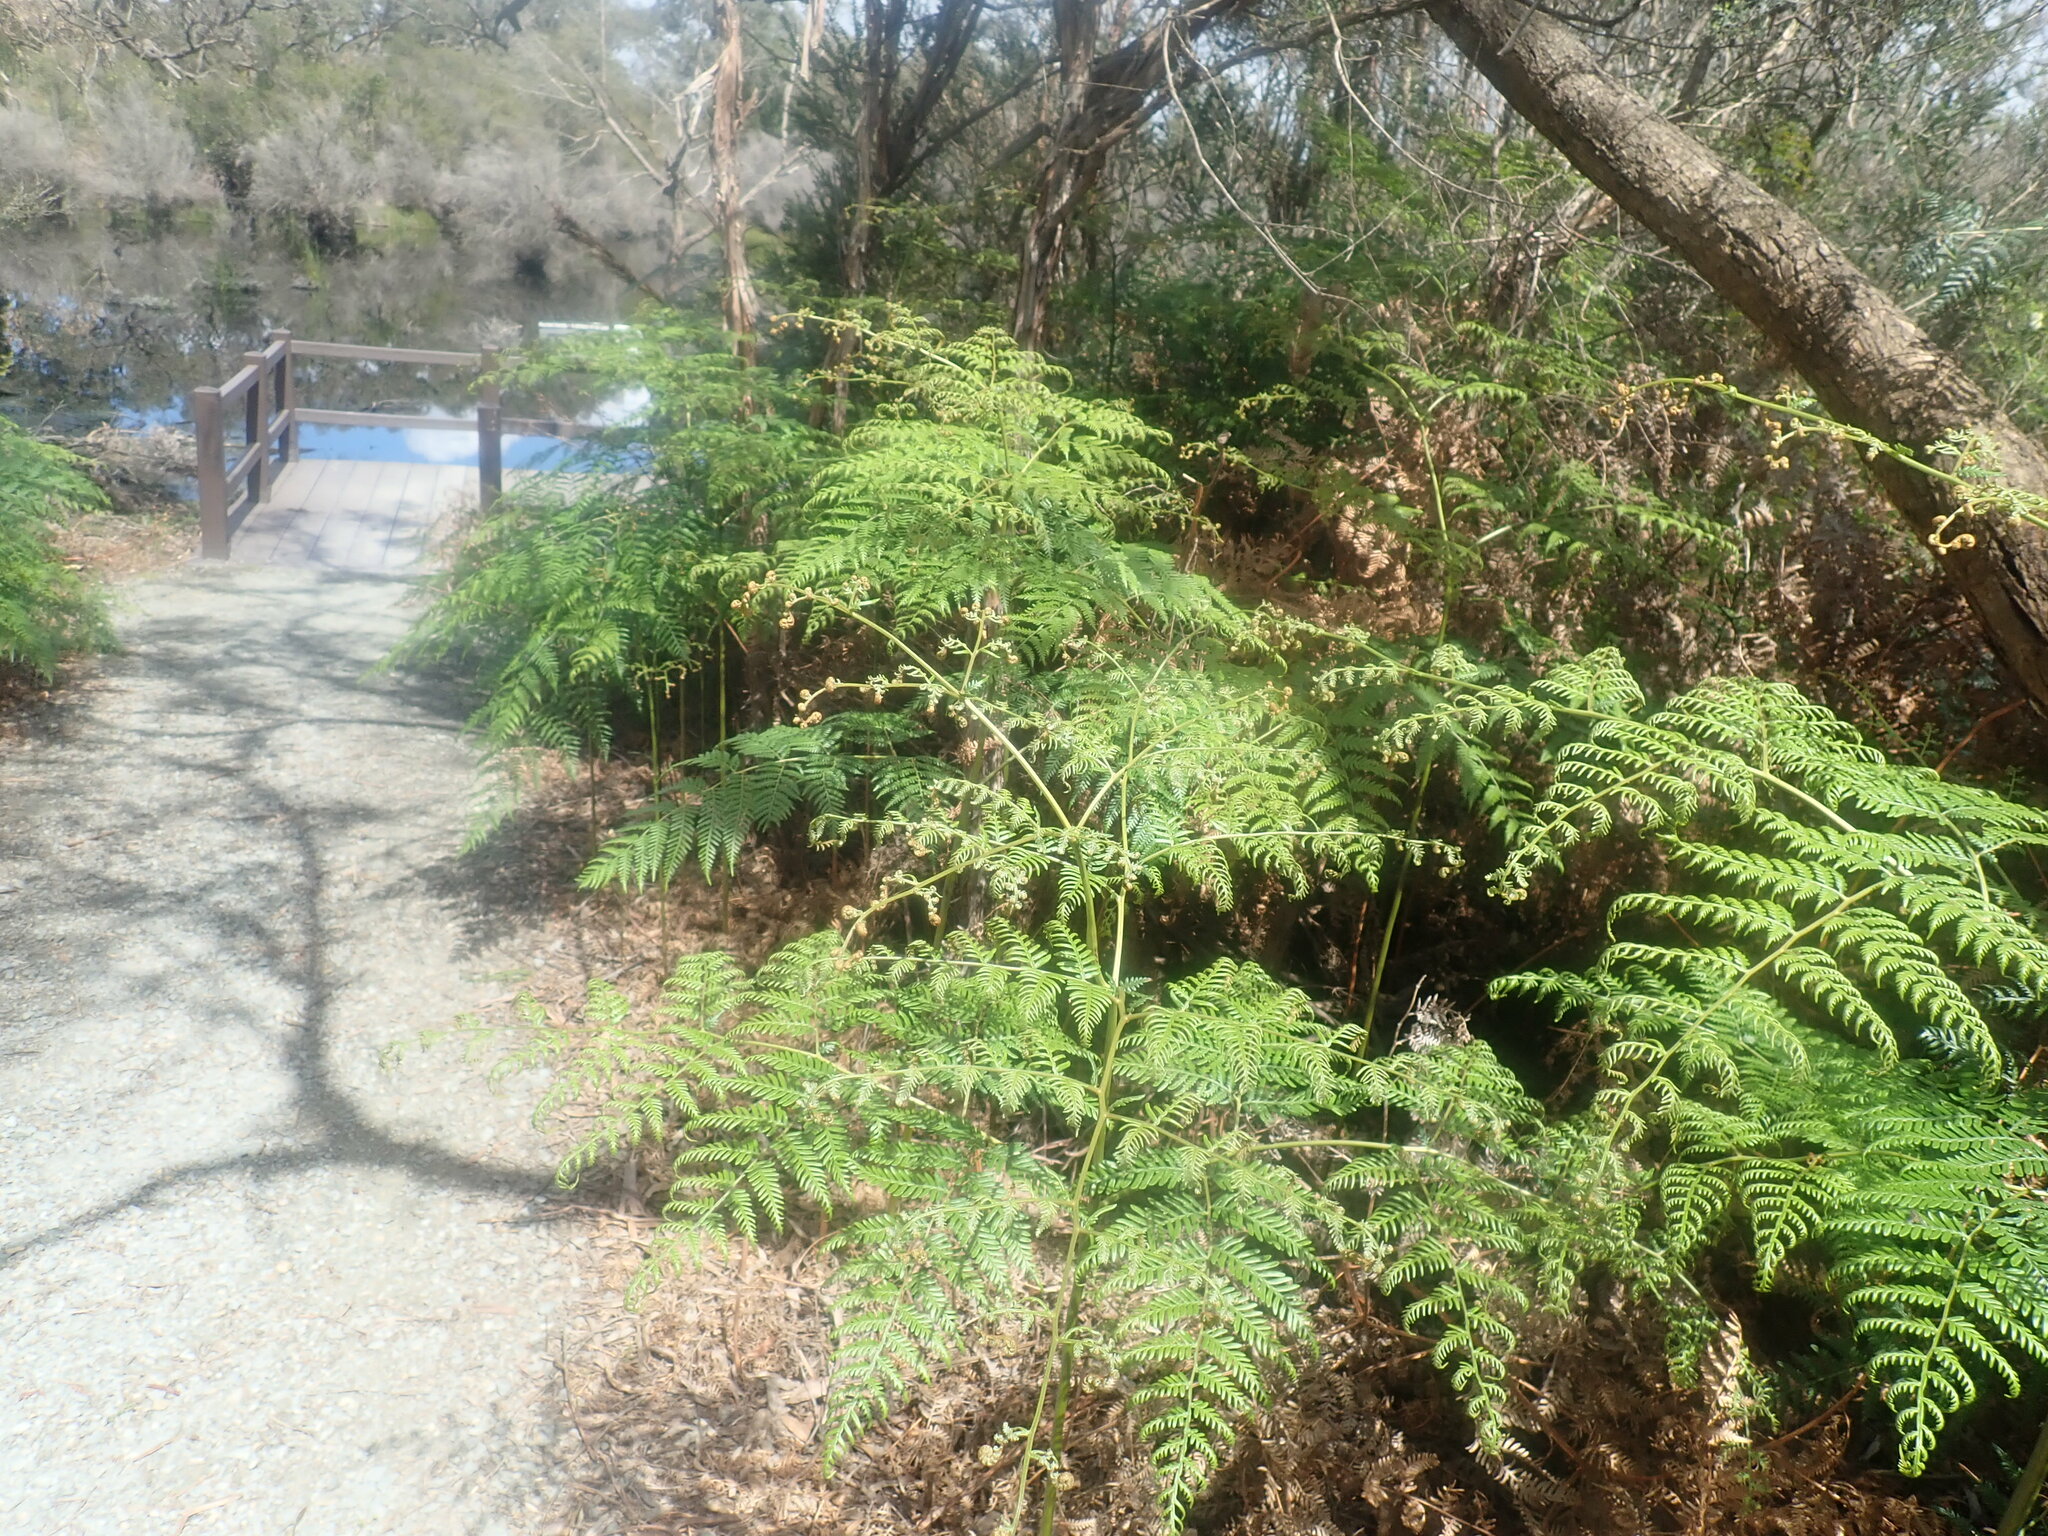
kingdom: Plantae
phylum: Tracheophyta
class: Polypodiopsida
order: Polypodiales
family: Dennstaedtiaceae
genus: Pteridium
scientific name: Pteridium esculentum
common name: Bracken fern
